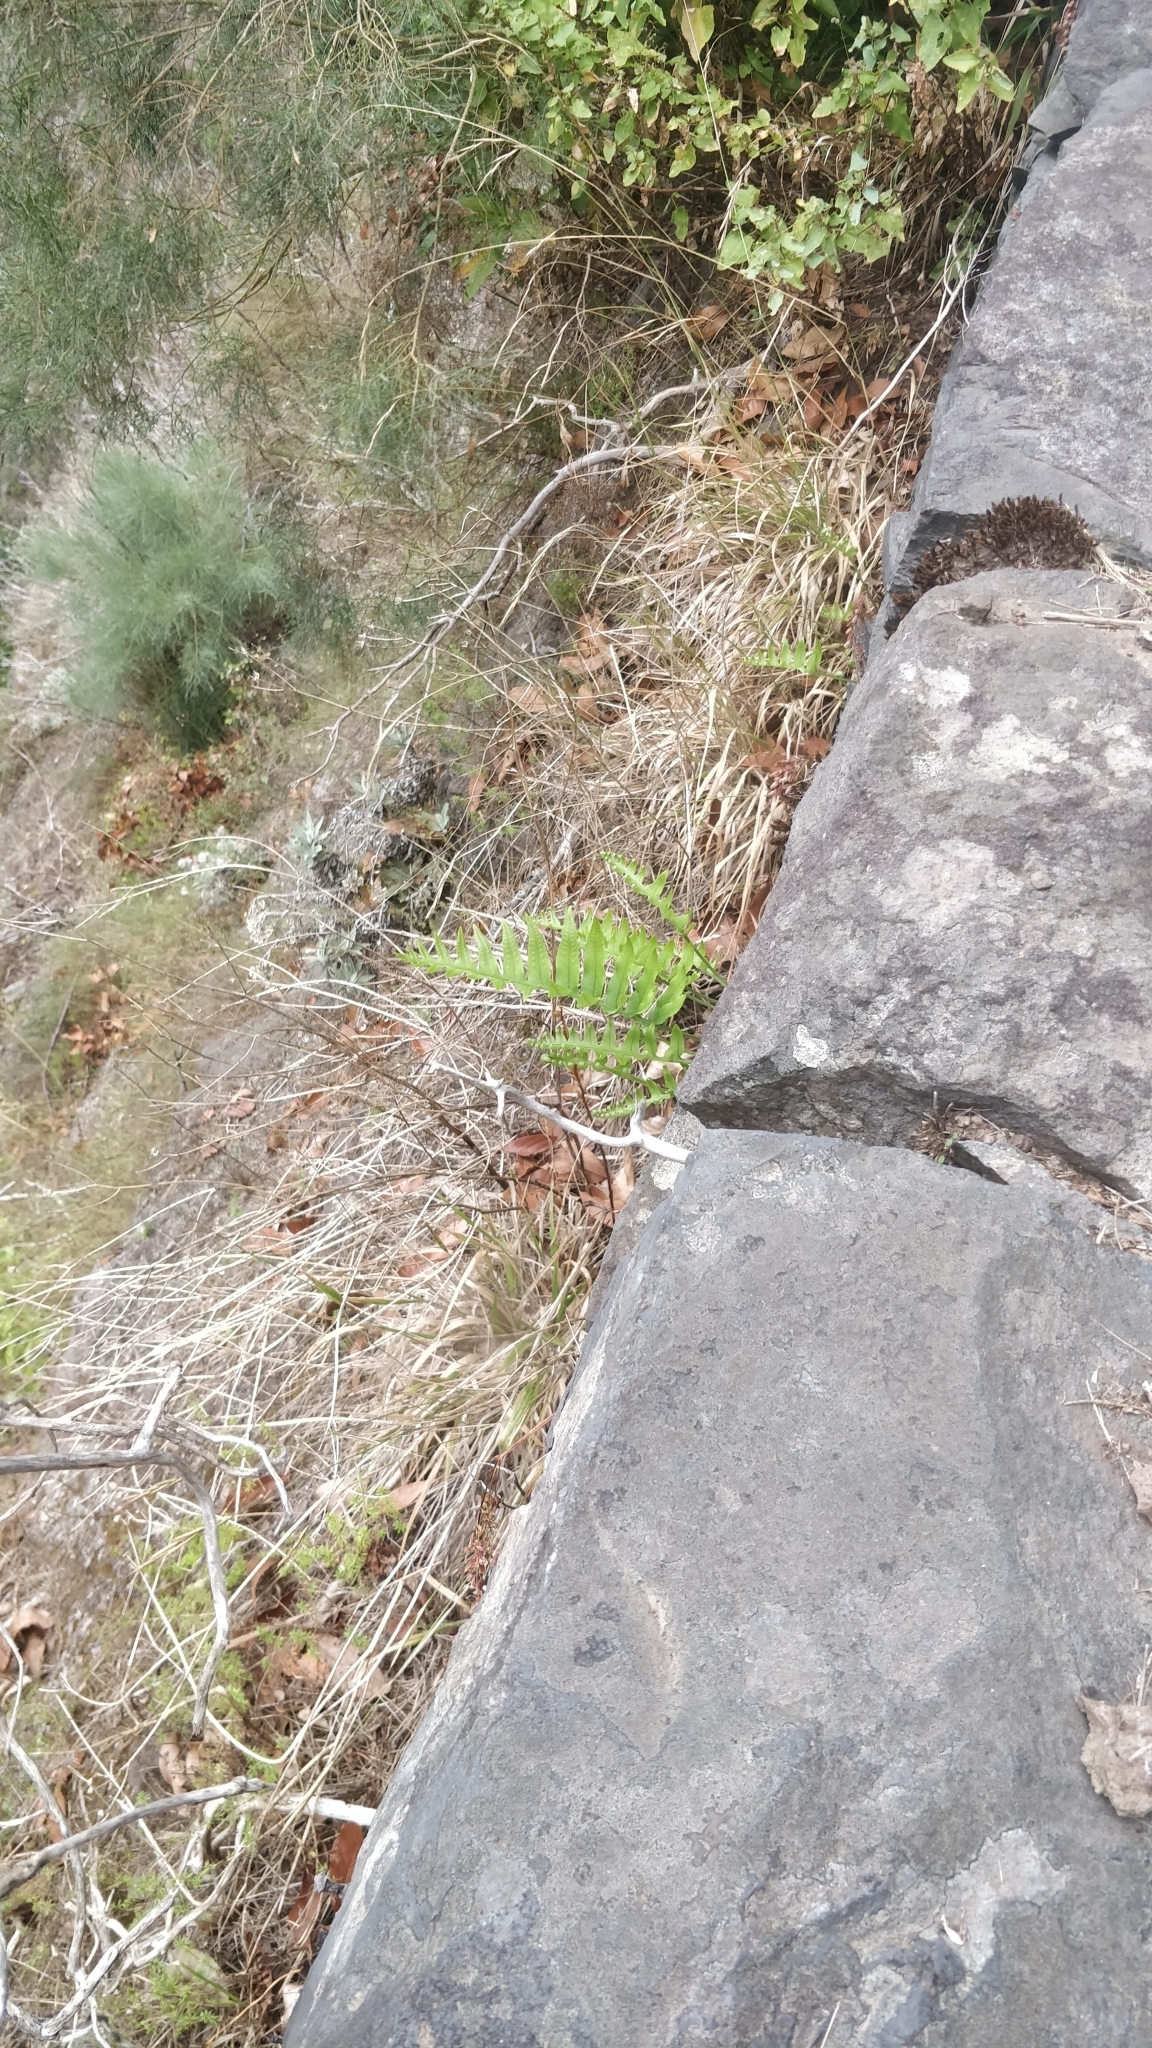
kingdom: Plantae
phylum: Tracheophyta
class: Polypodiopsida
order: Polypodiales
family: Polypodiaceae
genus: Polypodium
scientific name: Polypodium macaronesicum
